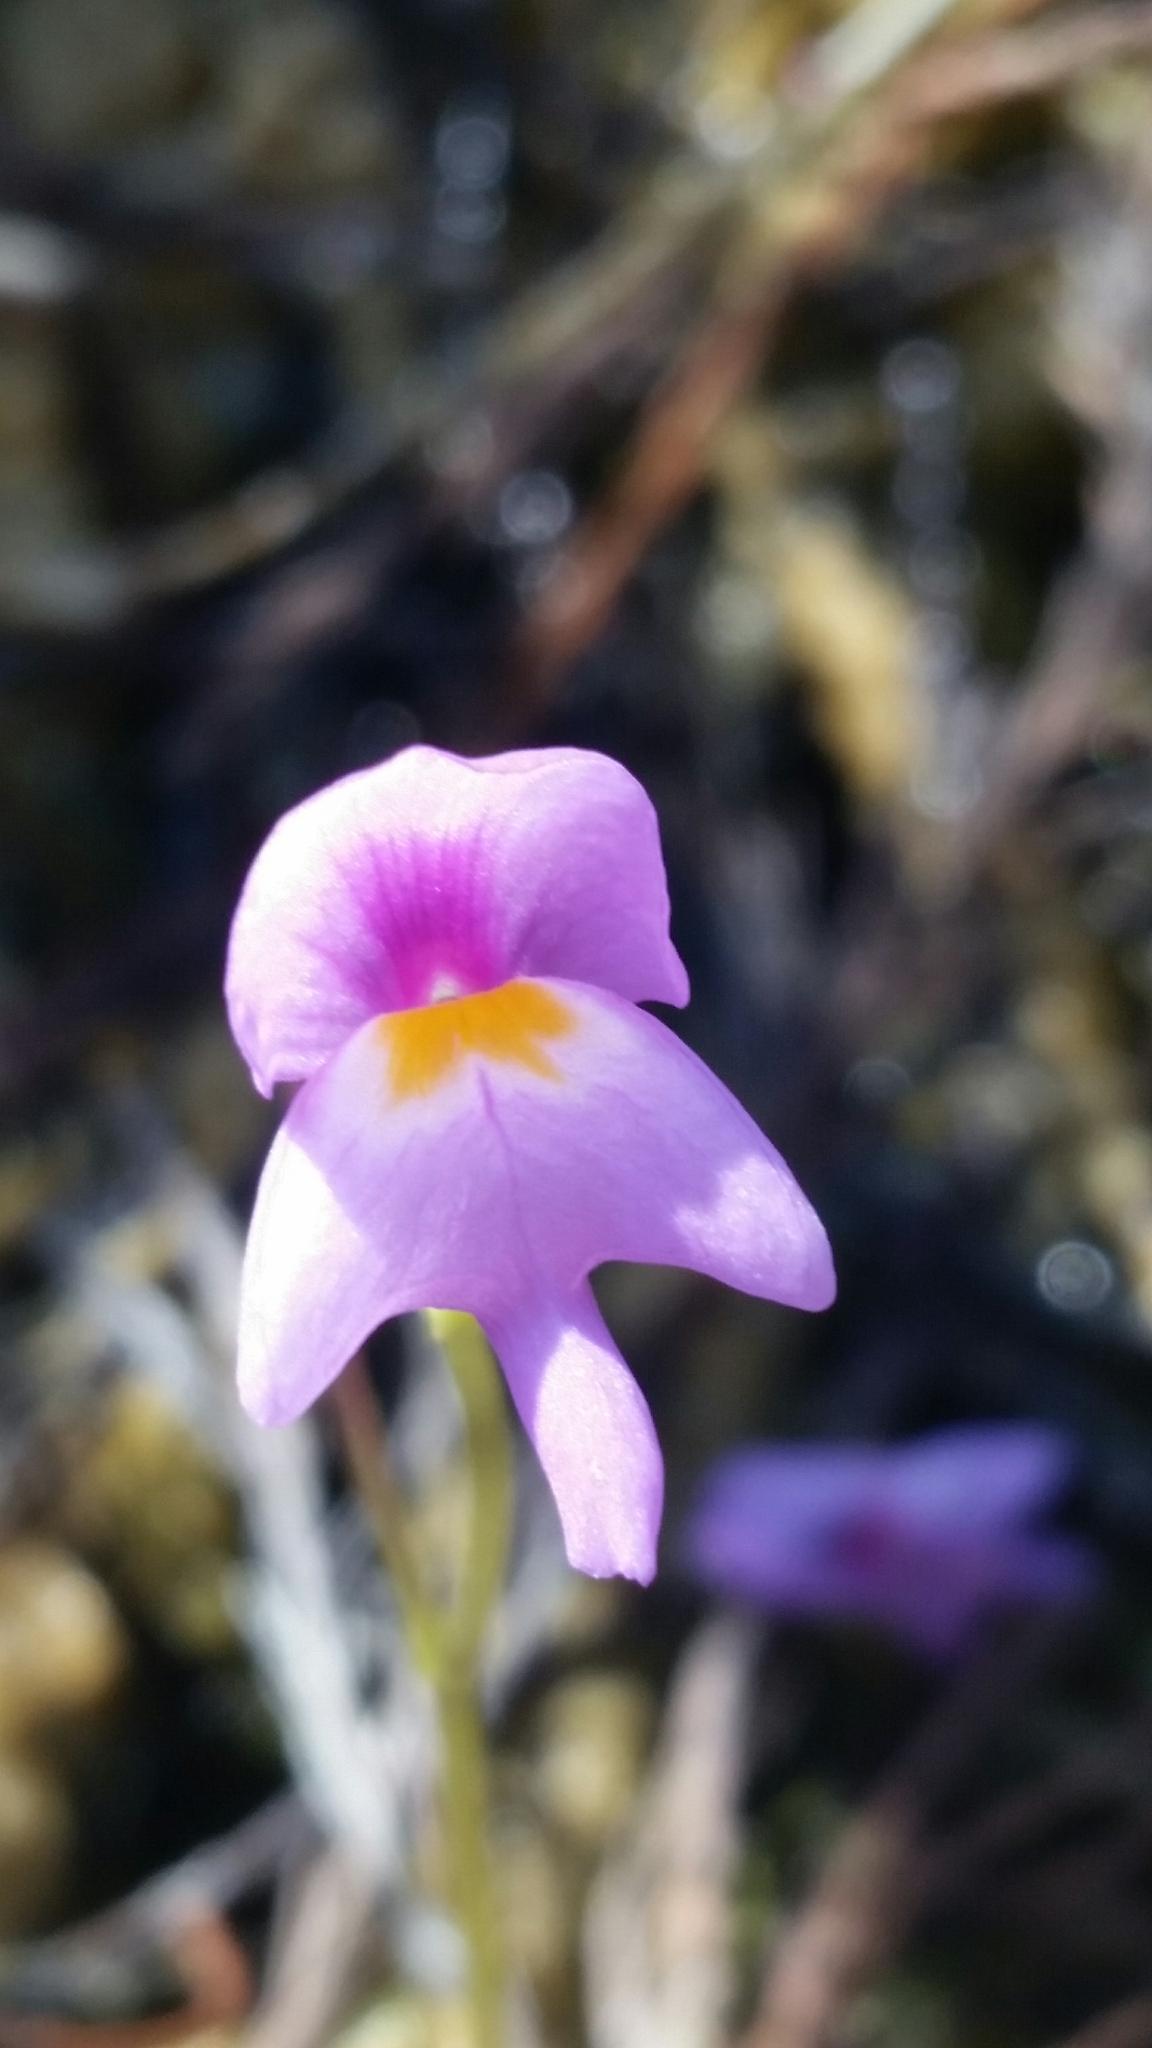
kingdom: Plantae
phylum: Tracheophyta
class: Magnoliopsida
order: Lamiales
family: Lentibulariaceae
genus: Utricularia
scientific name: Utricularia purpurea
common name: Eastern purple bladderwort
